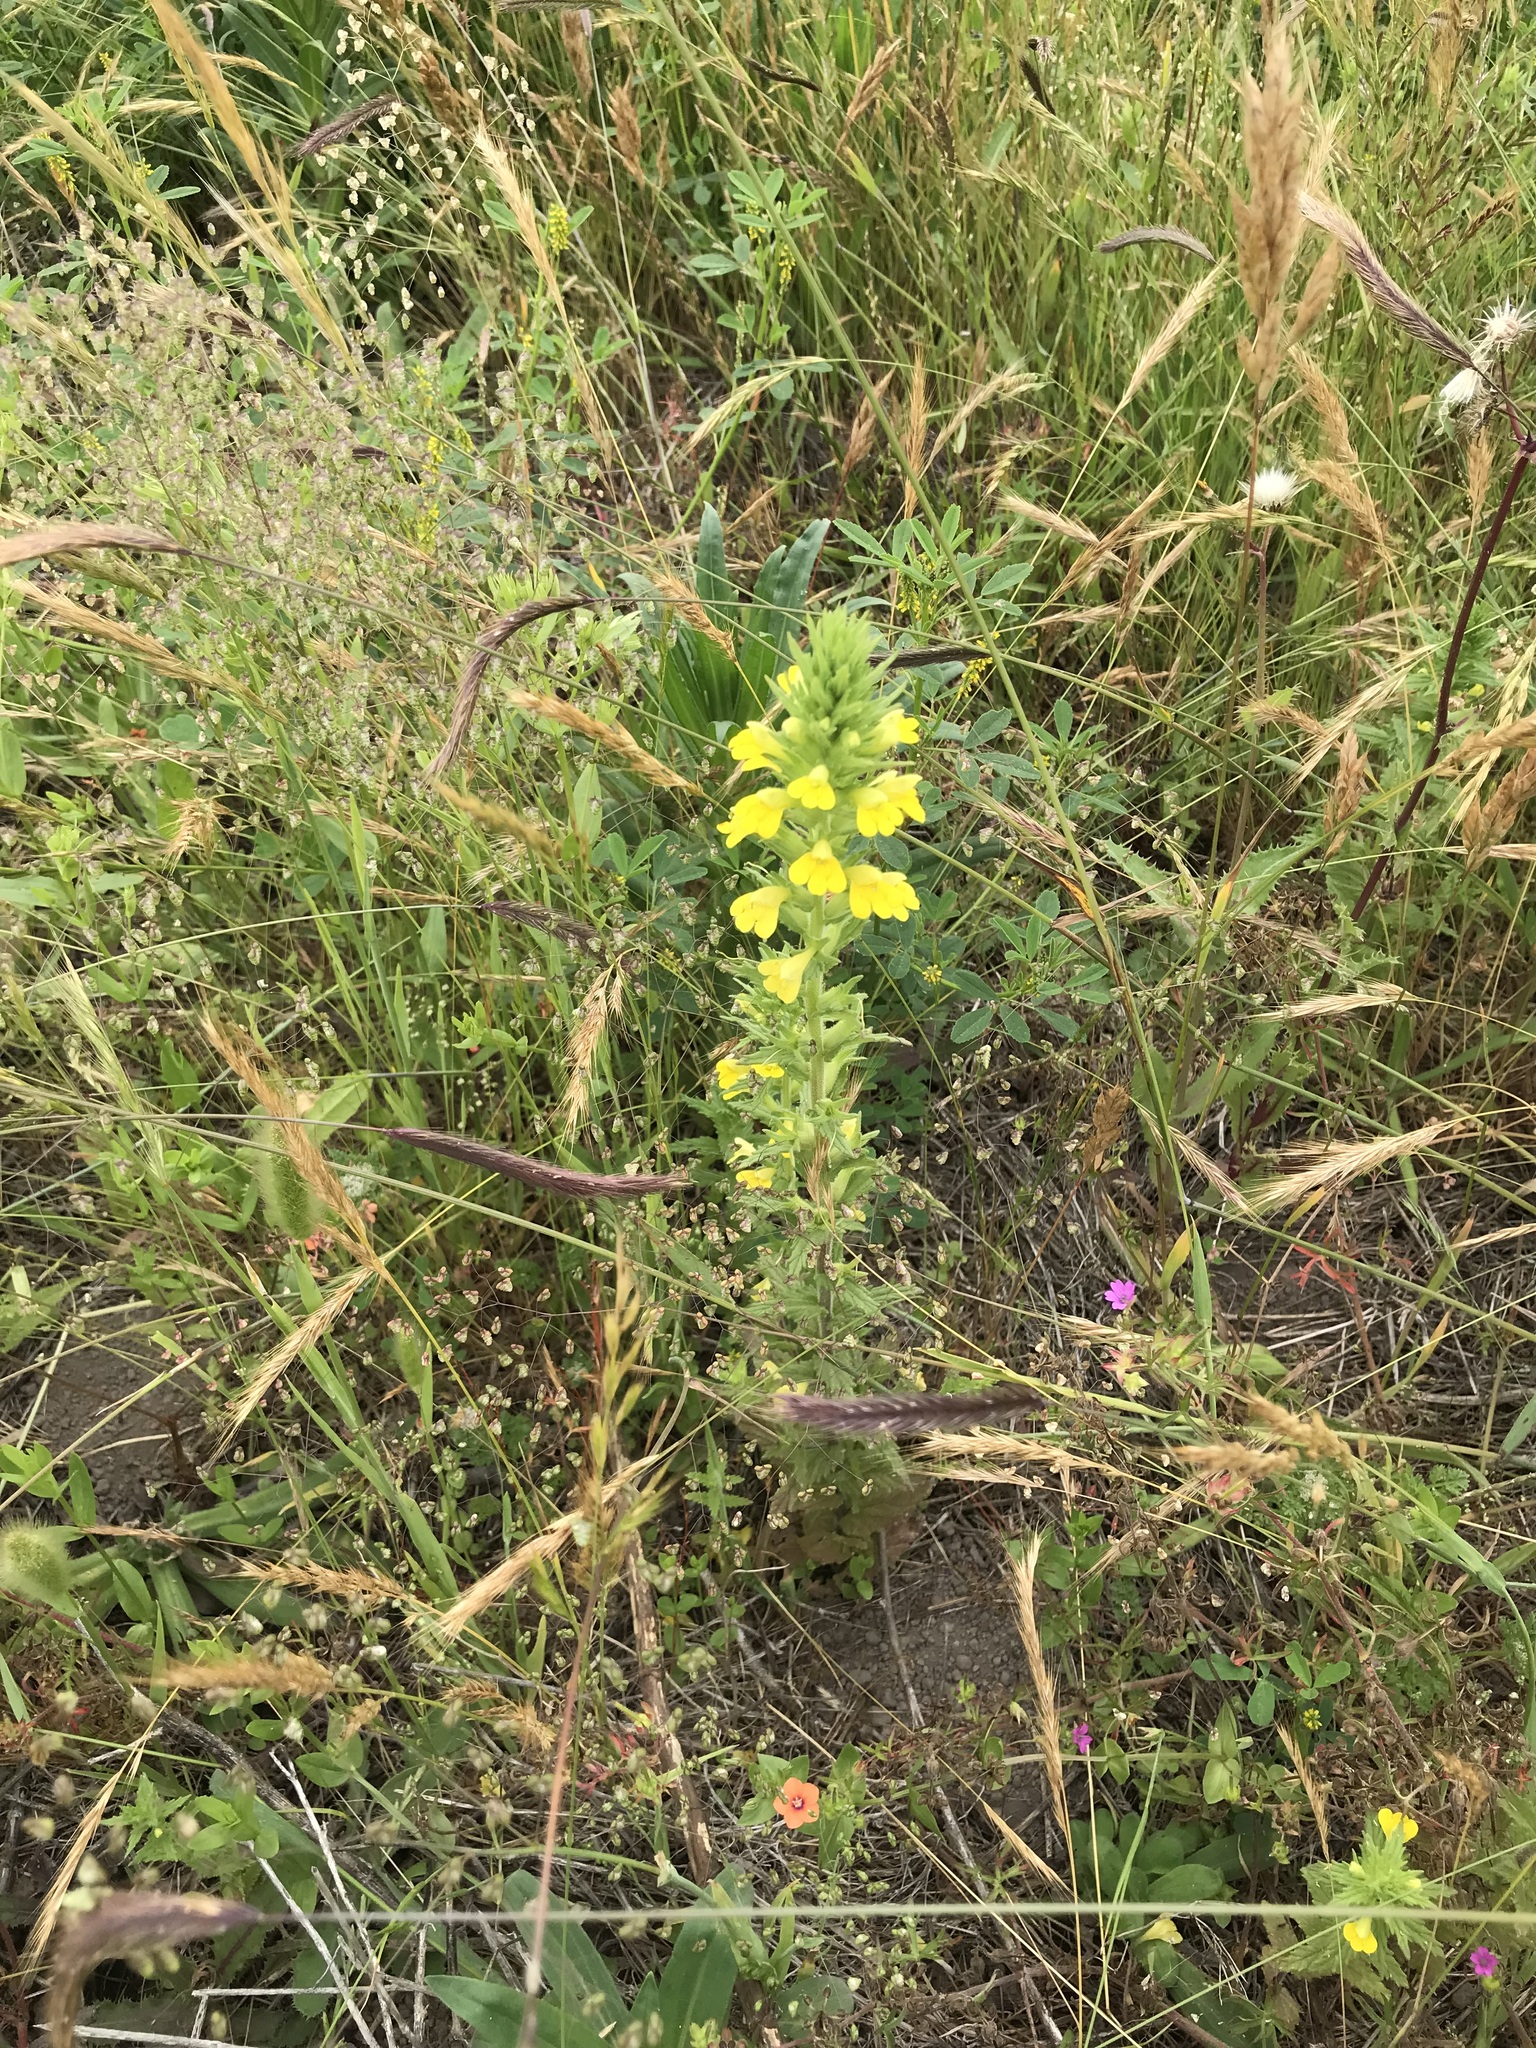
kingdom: Plantae
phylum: Tracheophyta
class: Magnoliopsida
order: Lamiales
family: Orobanchaceae
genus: Bellardia
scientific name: Bellardia viscosa
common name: Sticky parentucellia
